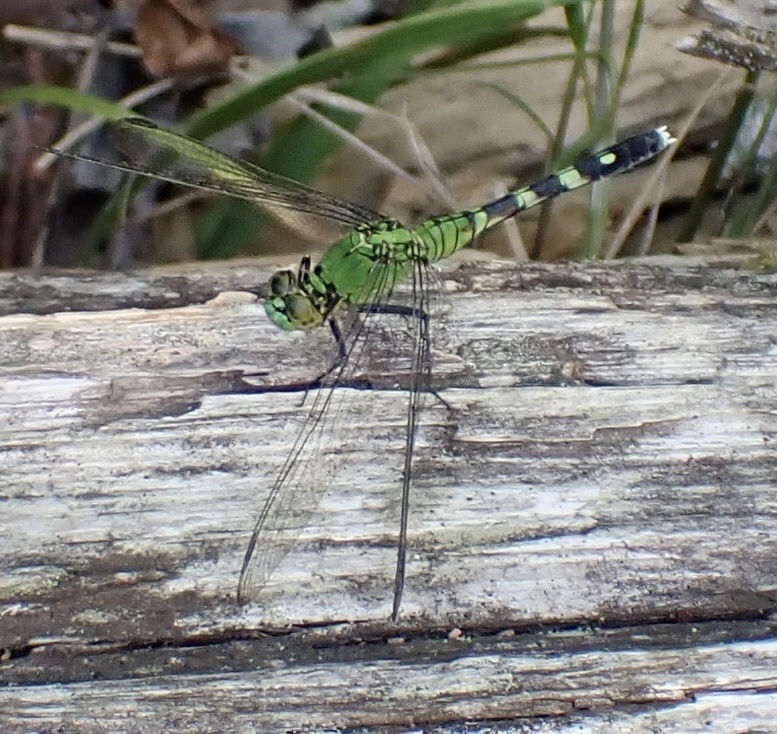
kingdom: Animalia
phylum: Arthropoda
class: Insecta
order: Odonata
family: Libellulidae
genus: Erythemis
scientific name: Erythemis simplicicollis
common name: Eastern pondhawk
